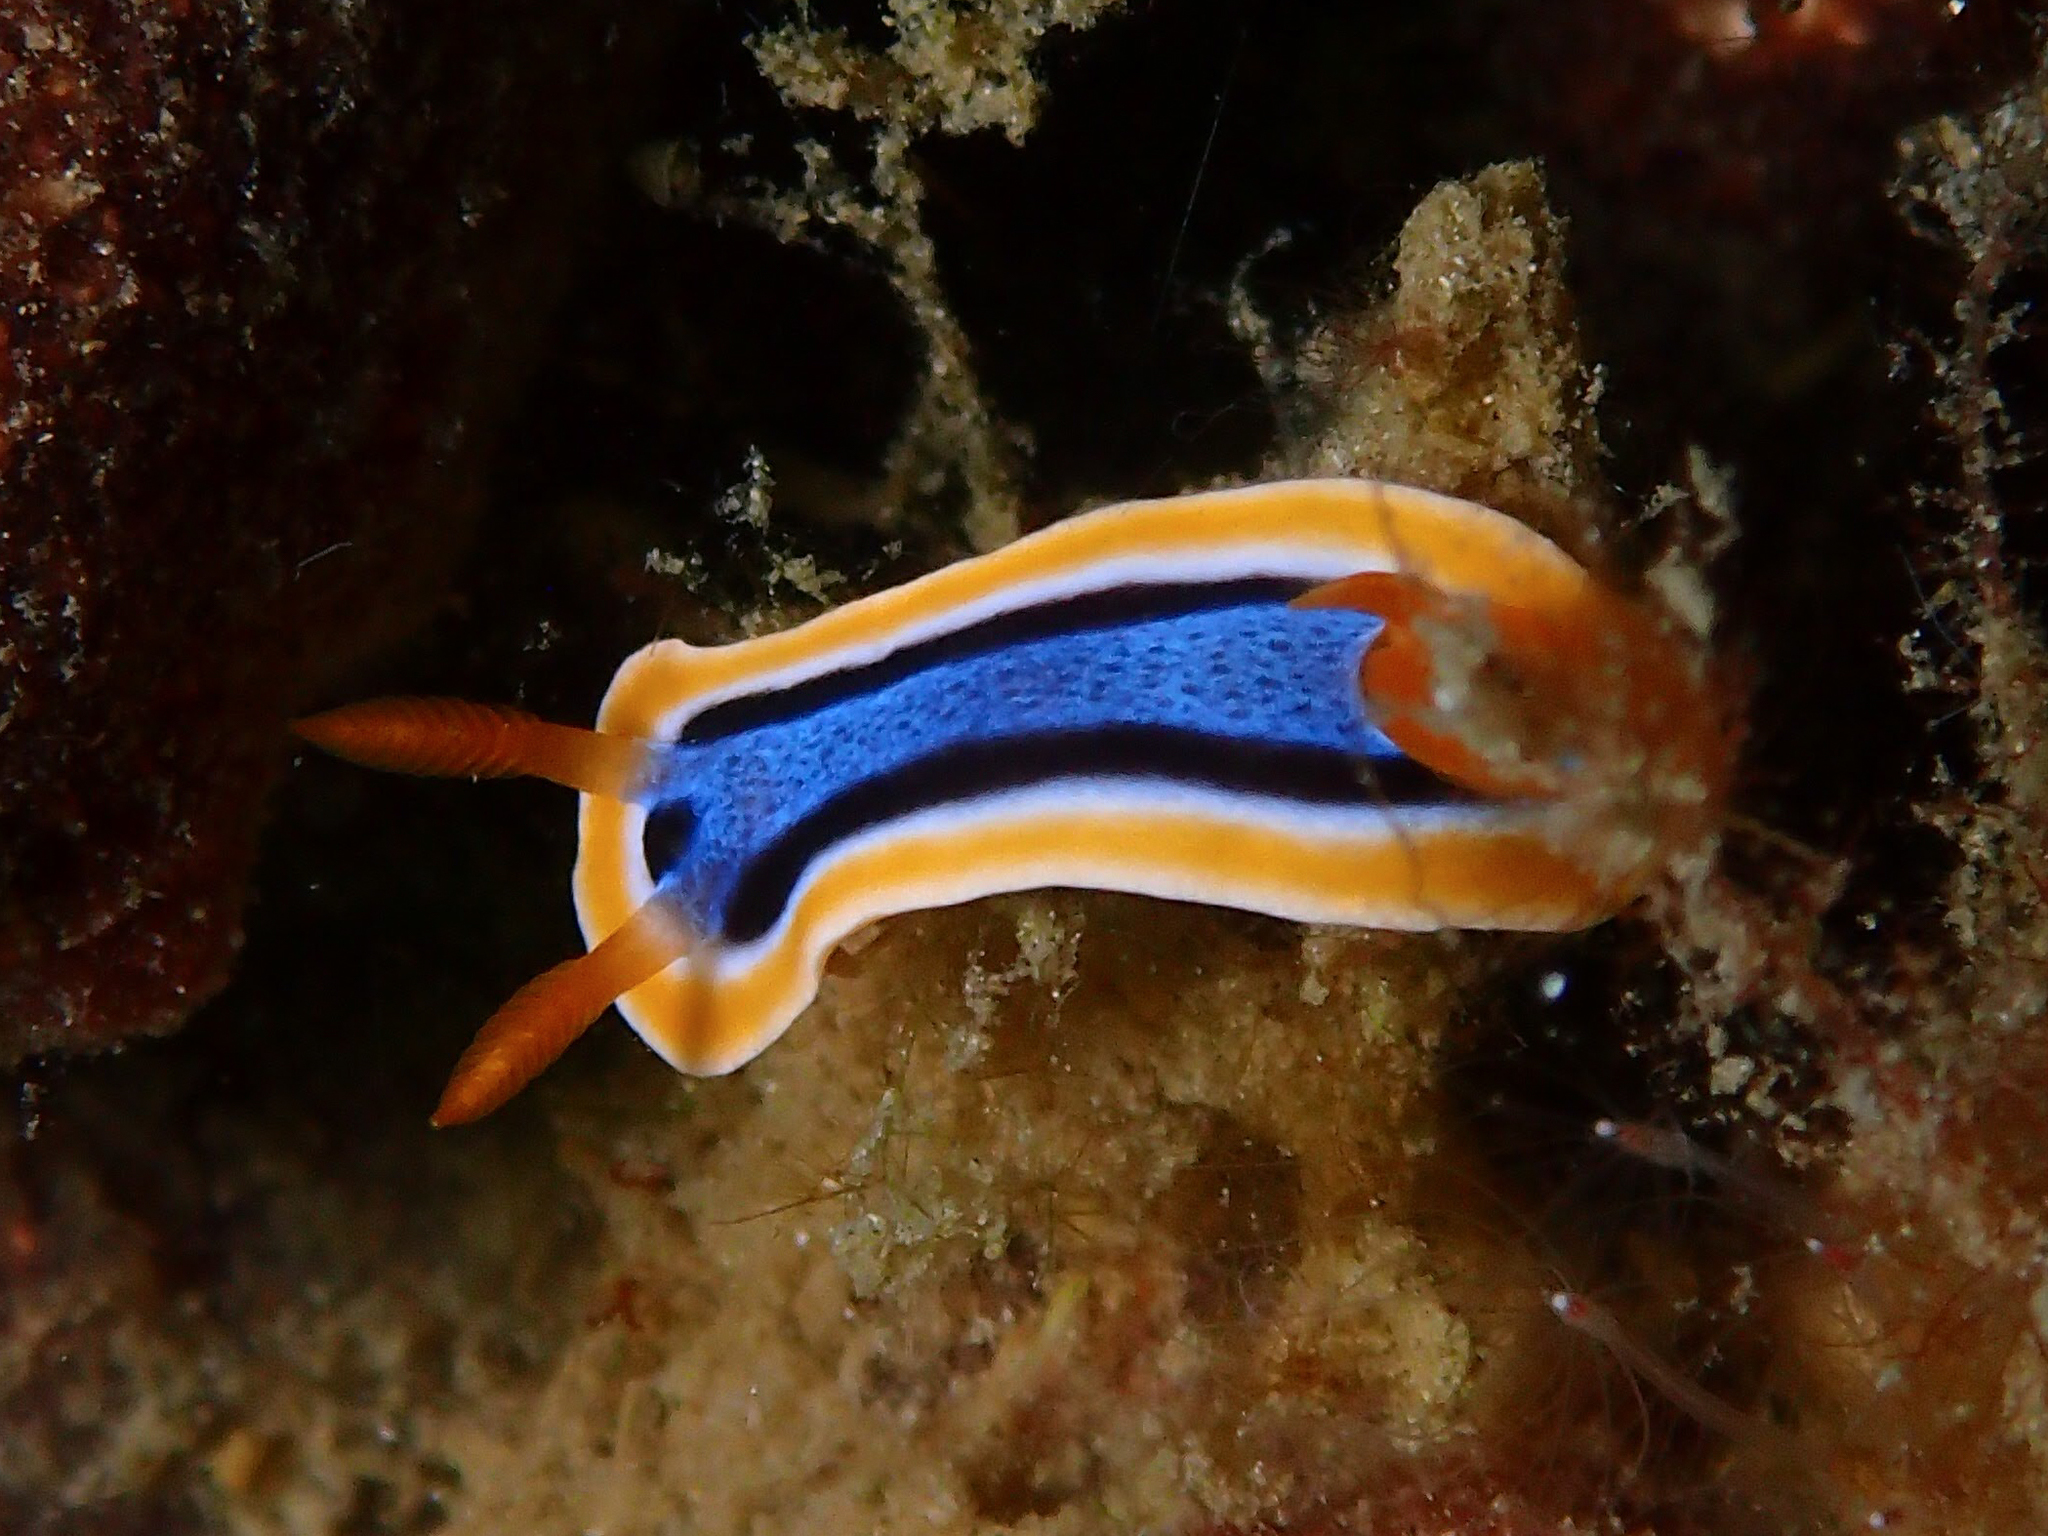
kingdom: Animalia
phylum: Mollusca
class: Gastropoda
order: Nudibranchia
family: Chromodorididae
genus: Chromodoris
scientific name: Chromodoris annae
